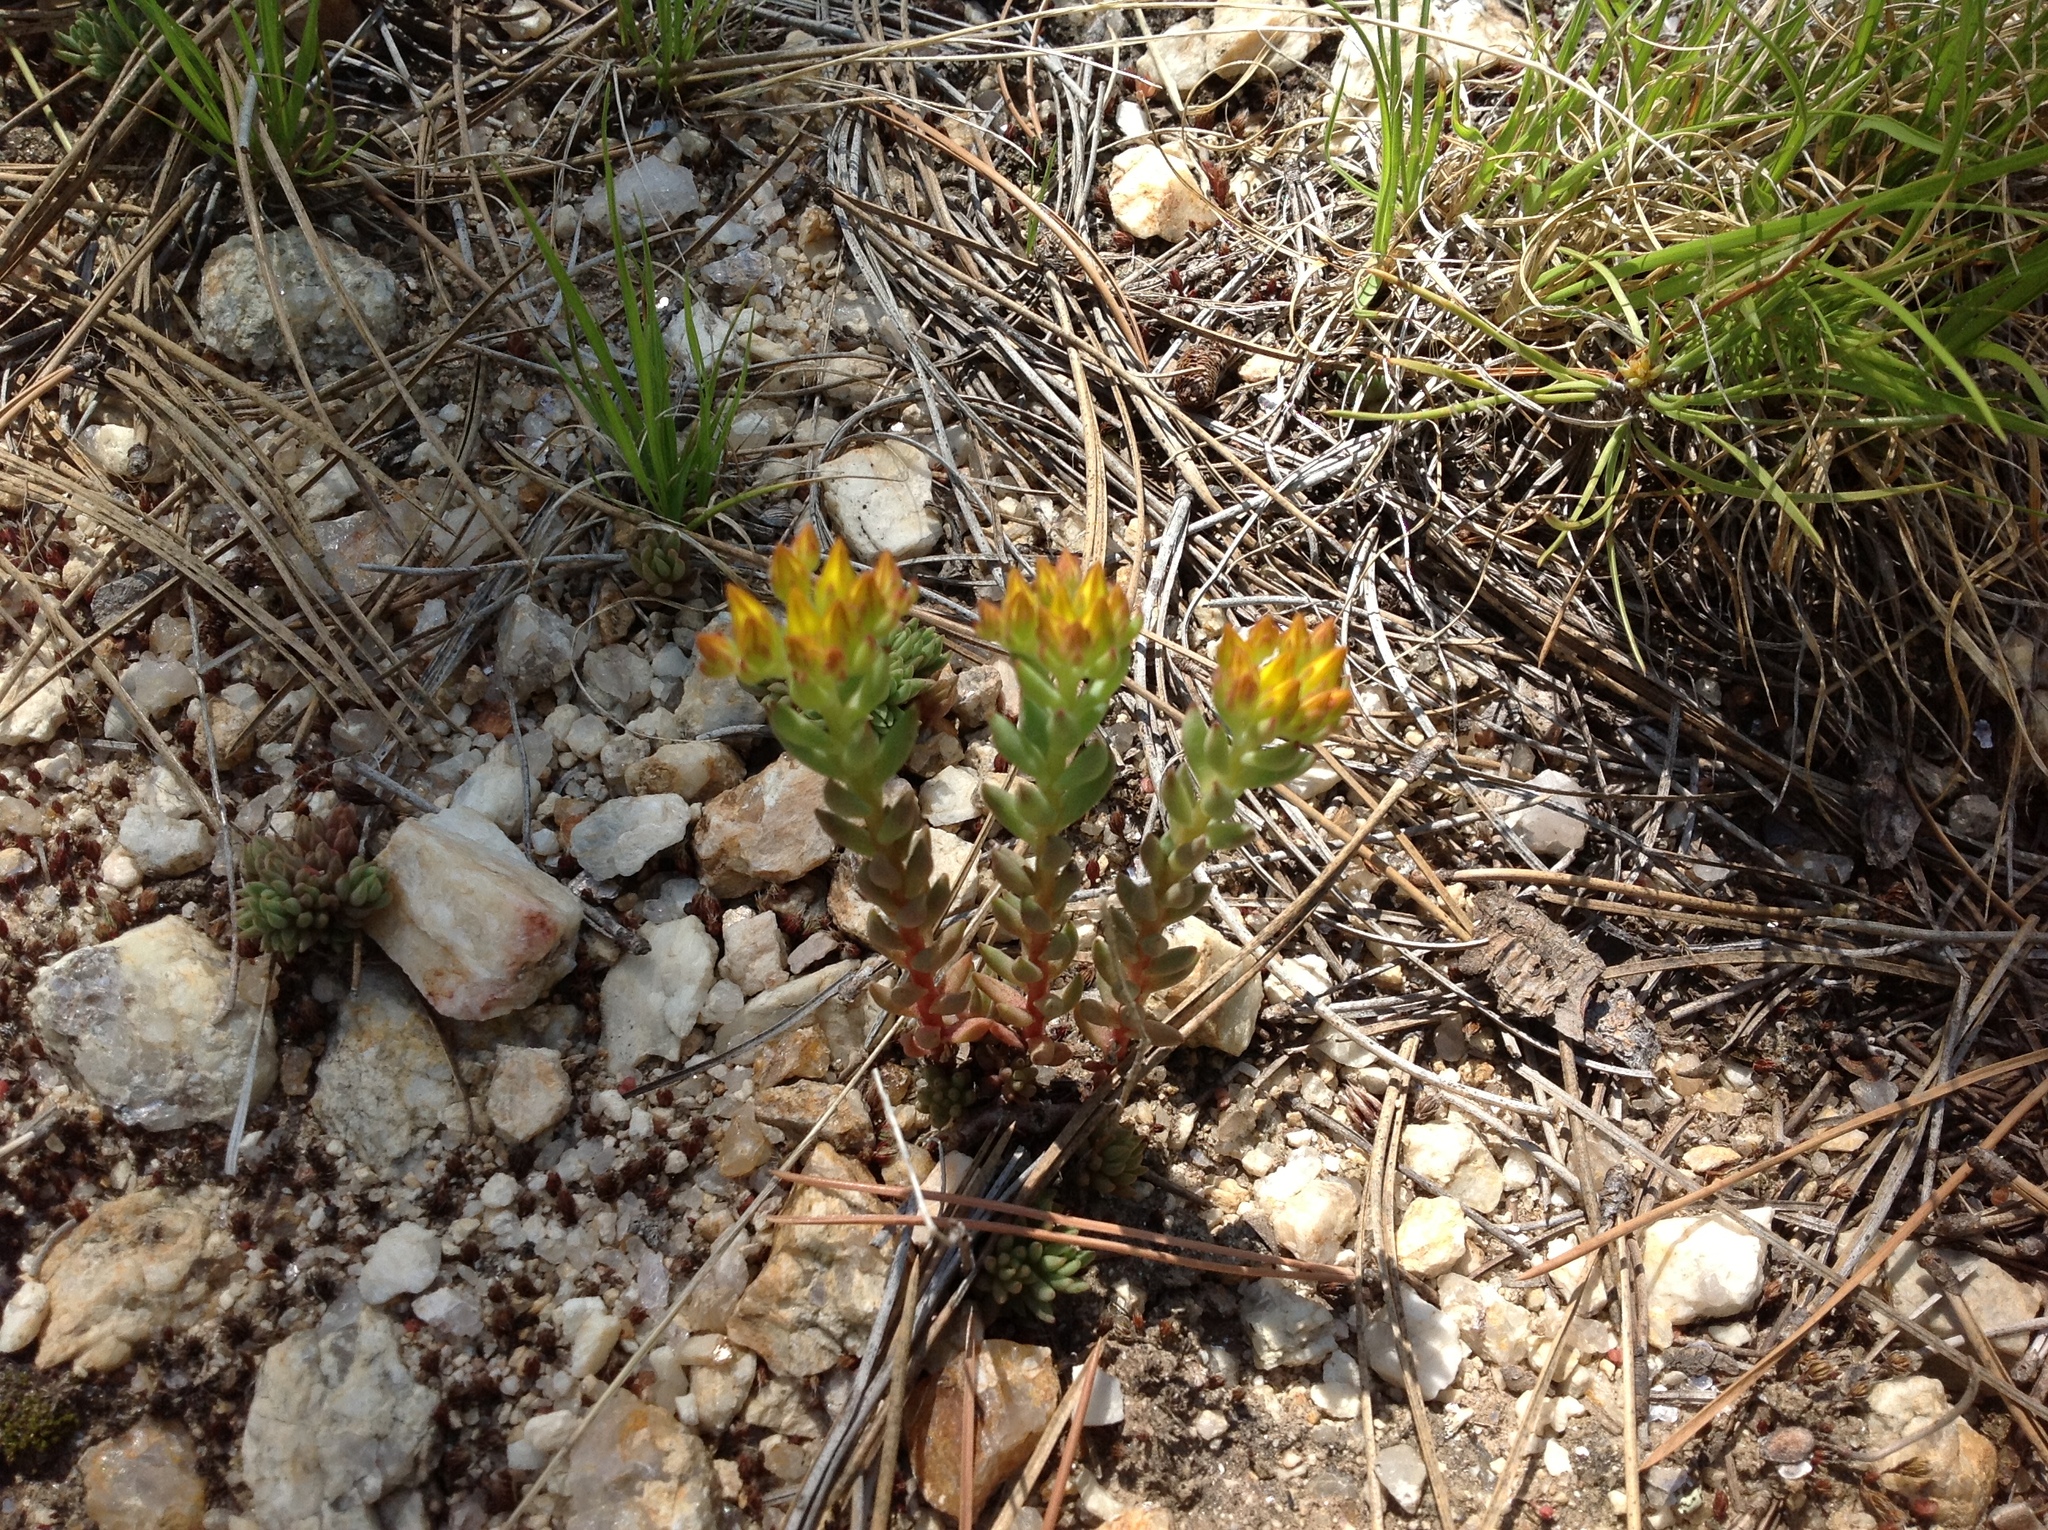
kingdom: Plantae
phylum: Tracheophyta
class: Magnoliopsida
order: Saxifragales
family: Crassulaceae
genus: Sedum
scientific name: Sedum lanceolatum
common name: Common stonecrop
